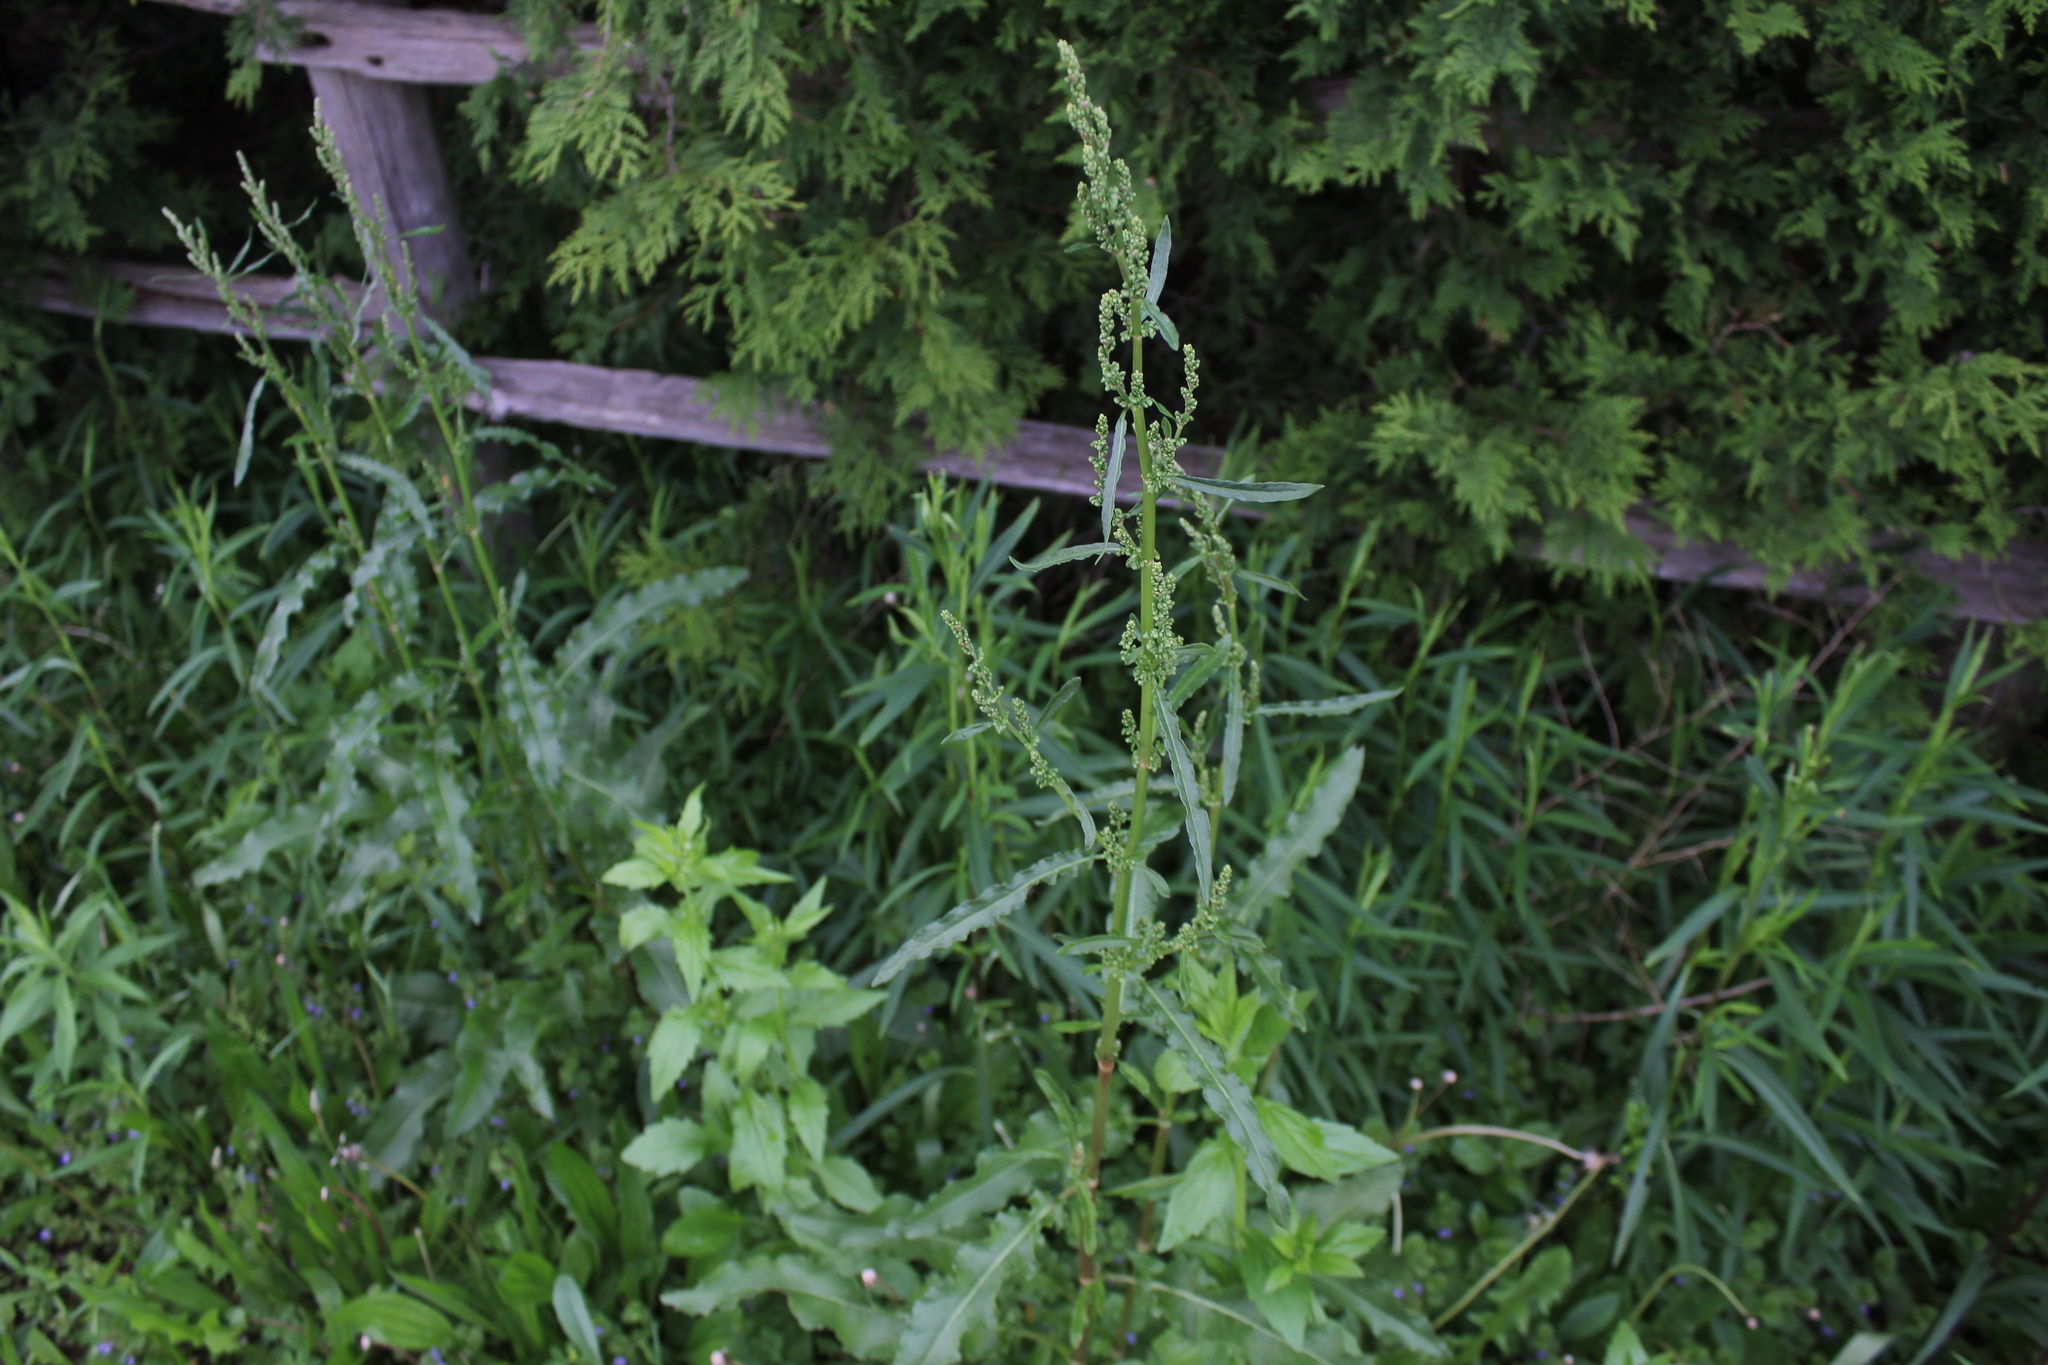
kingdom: Plantae
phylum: Tracheophyta
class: Magnoliopsida
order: Caryophyllales
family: Polygonaceae
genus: Rumex
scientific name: Rumex crispus
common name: Curled dock
